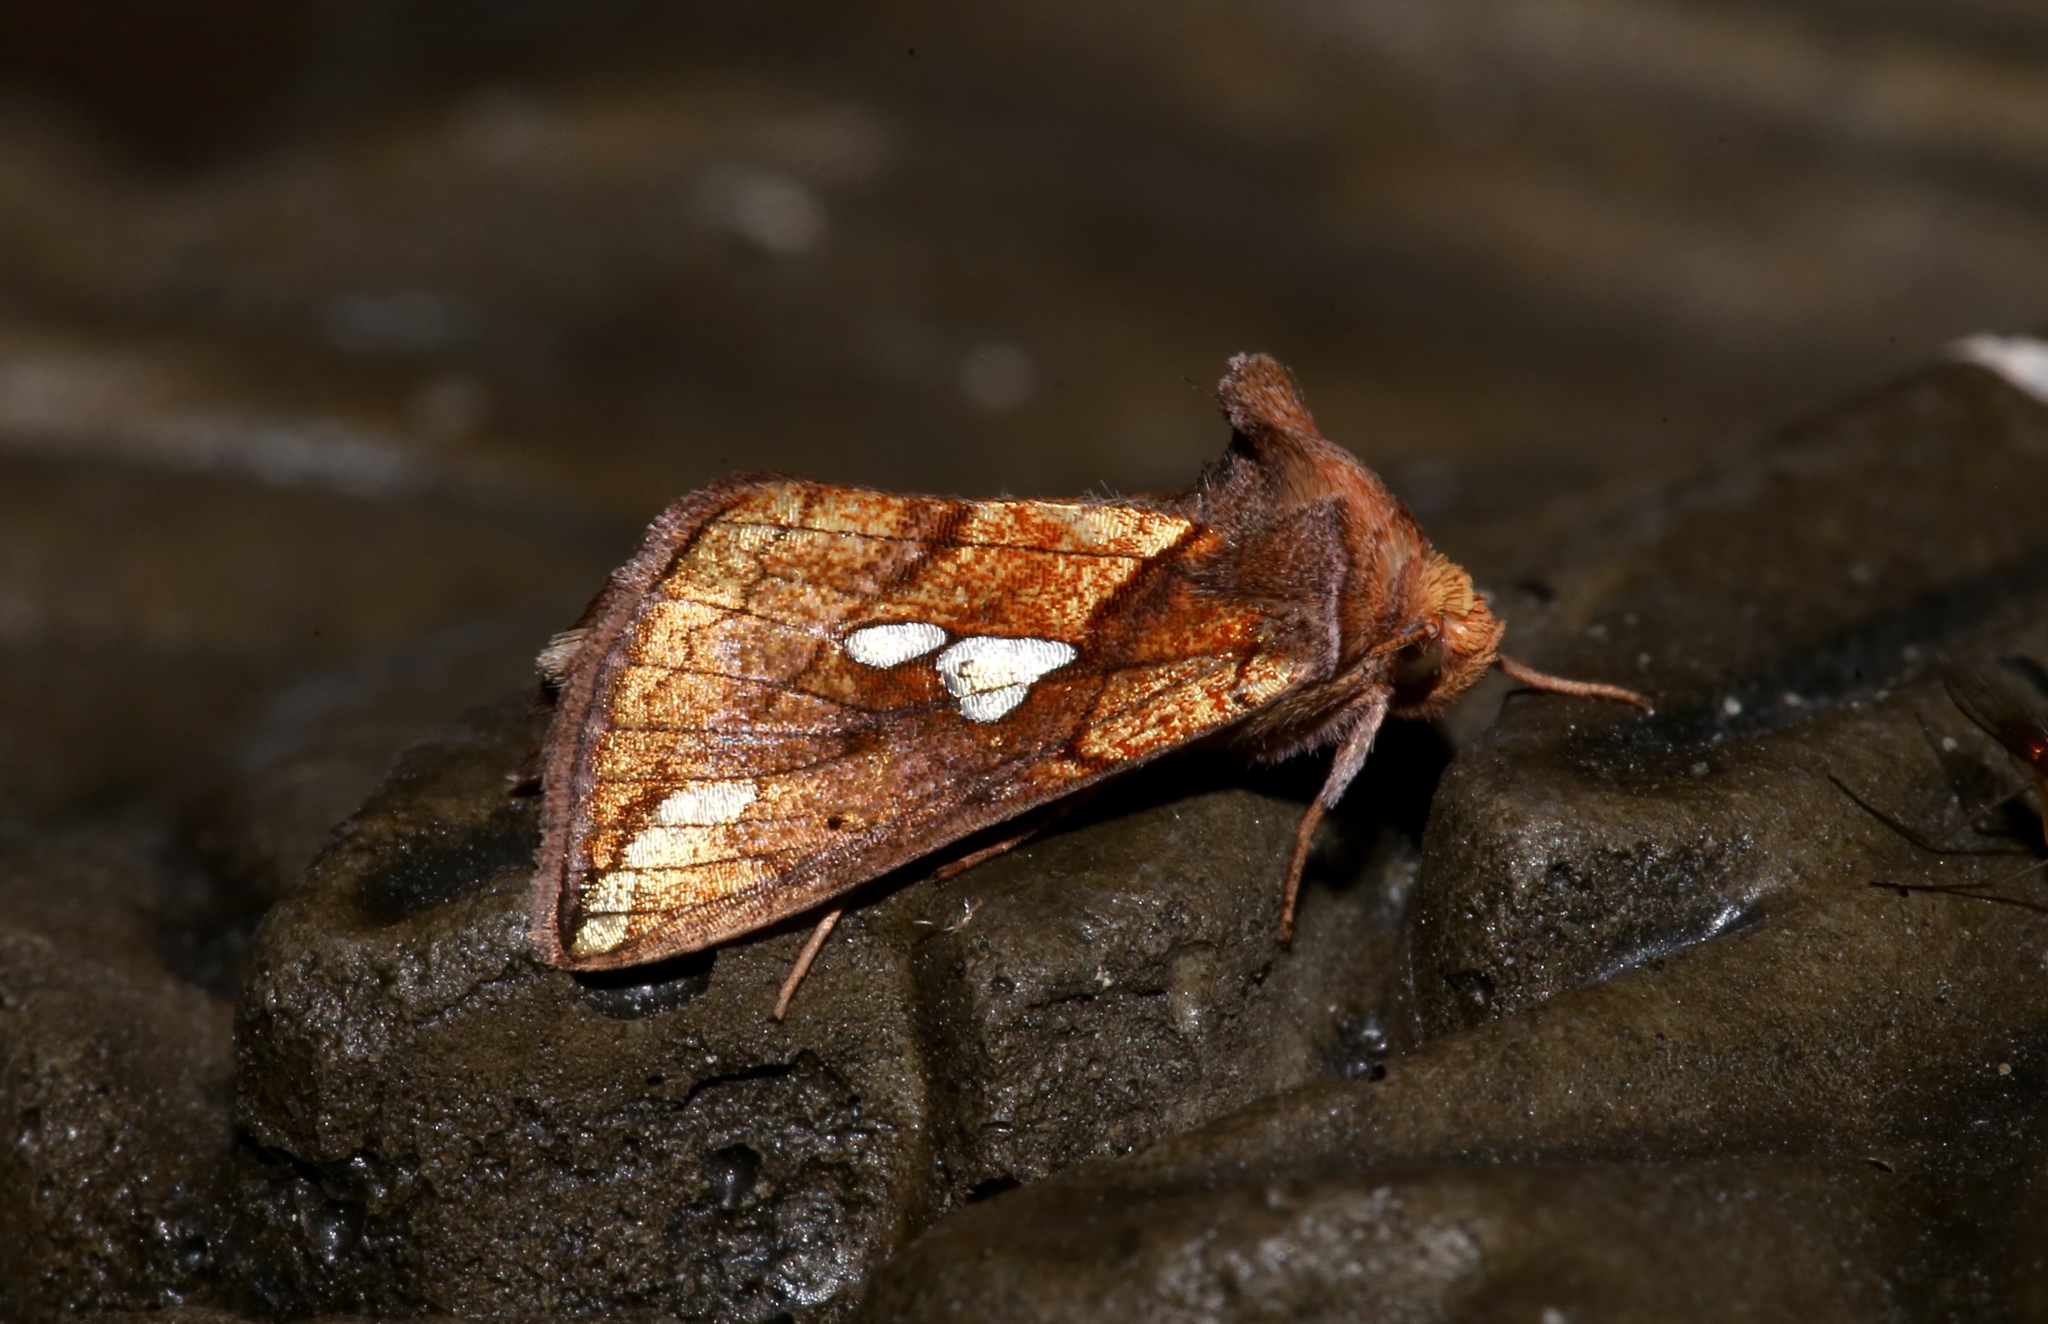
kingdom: Animalia
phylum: Arthropoda
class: Insecta
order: Lepidoptera
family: Noctuidae
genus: Plusia
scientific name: Plusia putnami
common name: Lempke's gold spot
